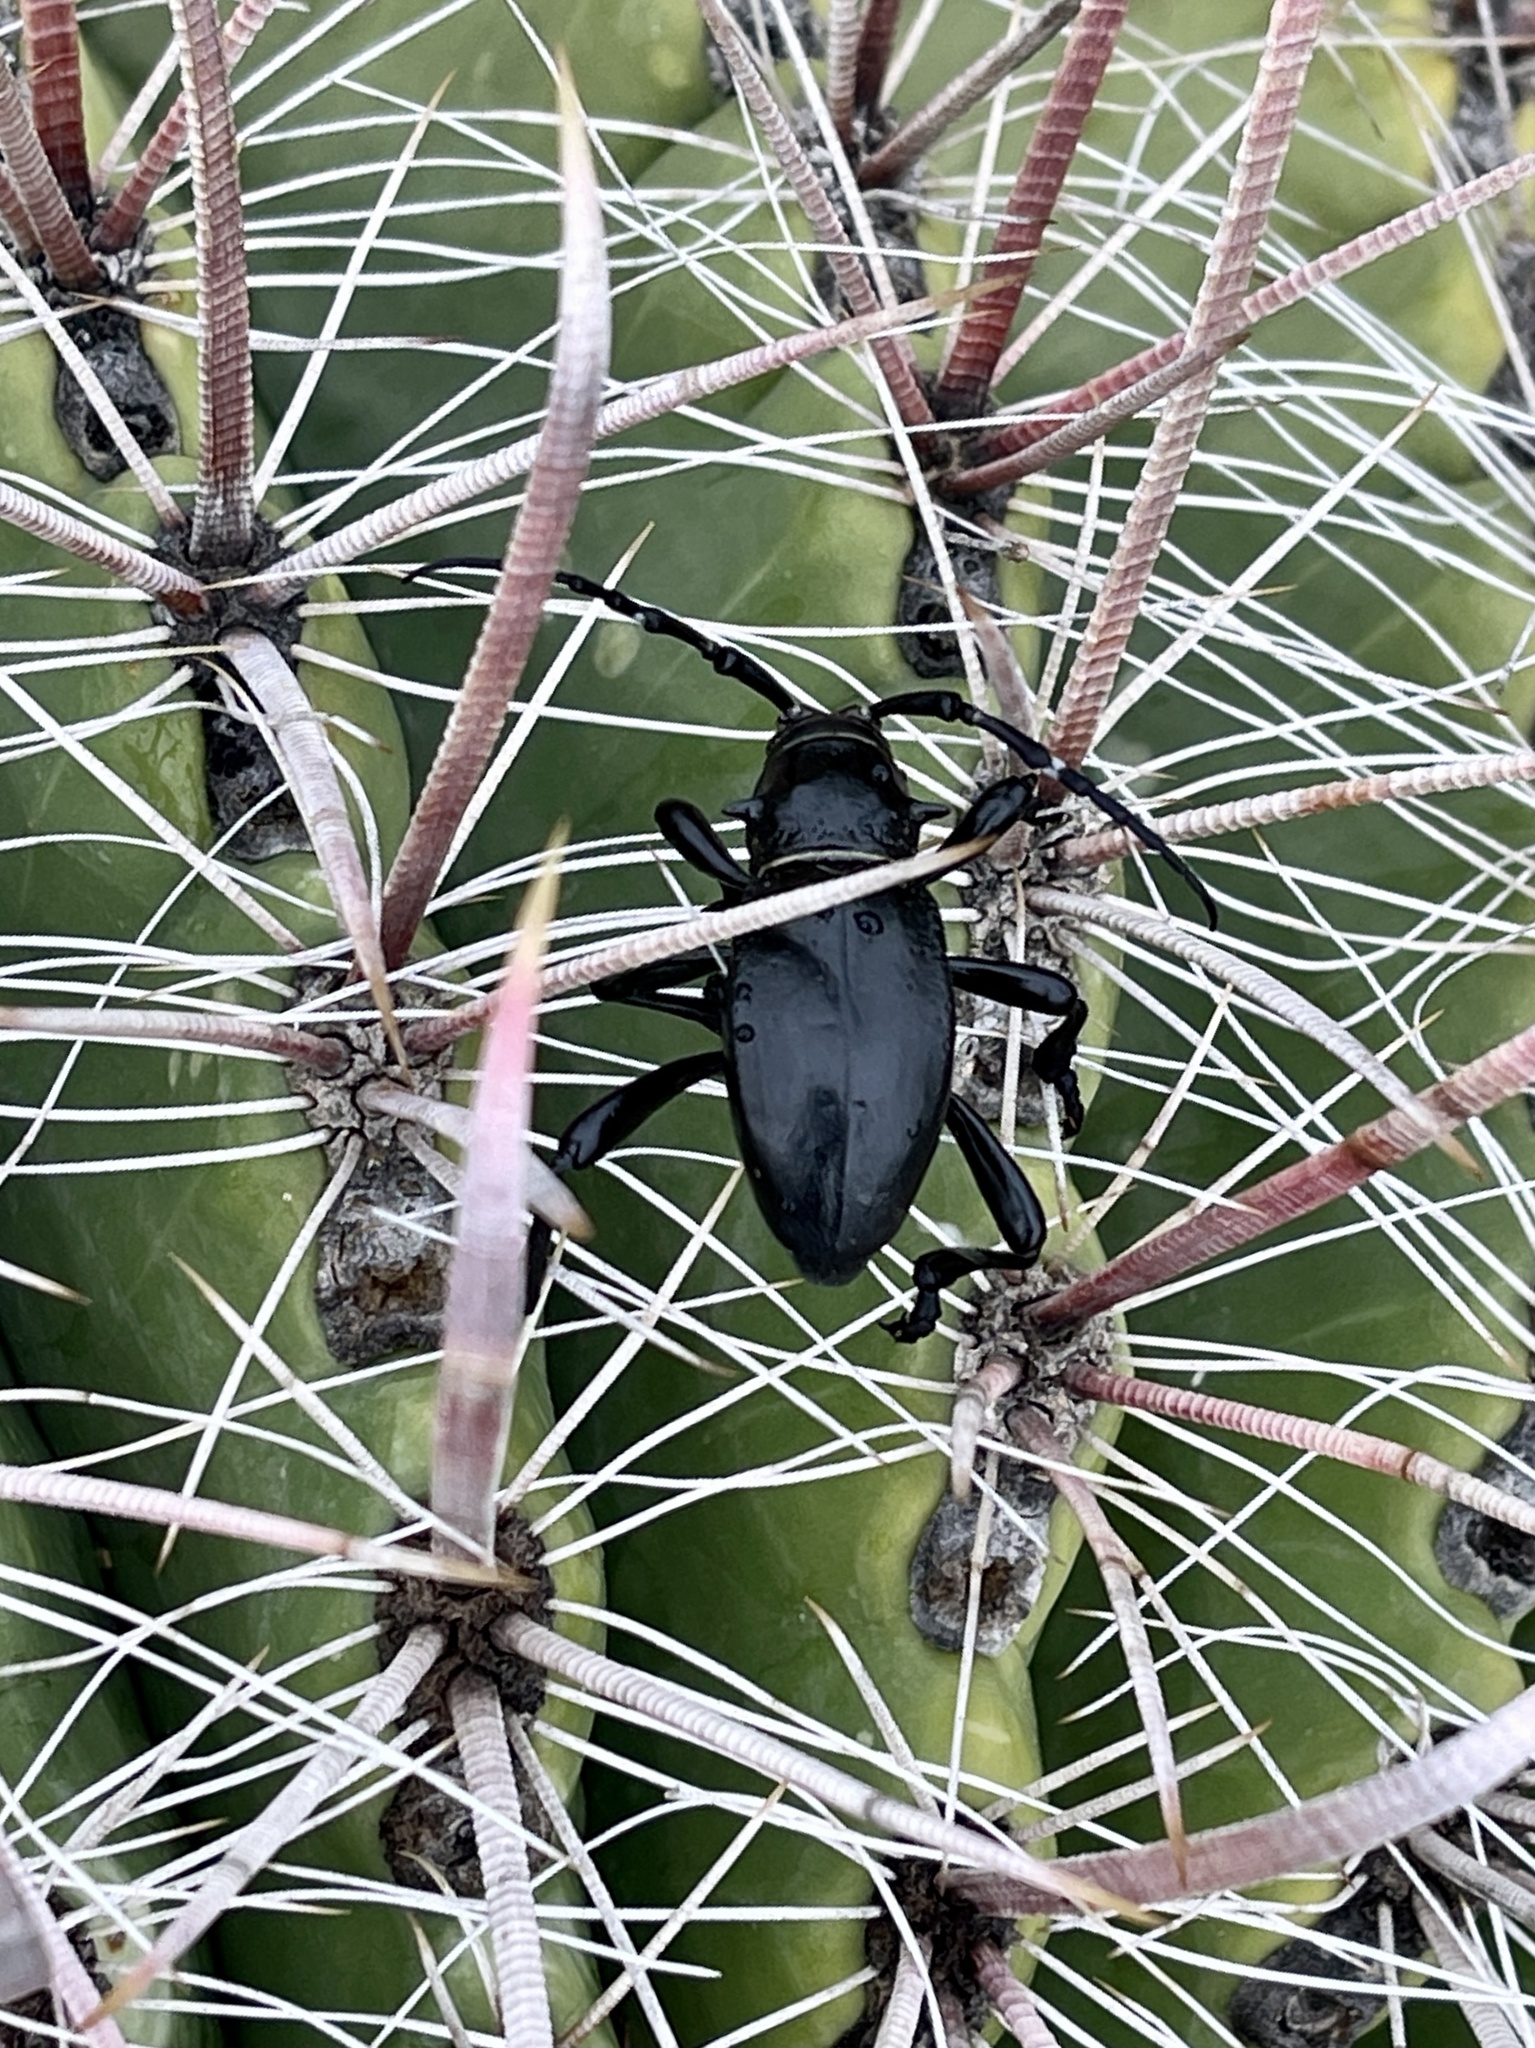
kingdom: Animalia
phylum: Arthropoda
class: Insecta
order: Coleoptera
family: Cerambycidae
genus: Moneilema
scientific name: Moneilema gigas
